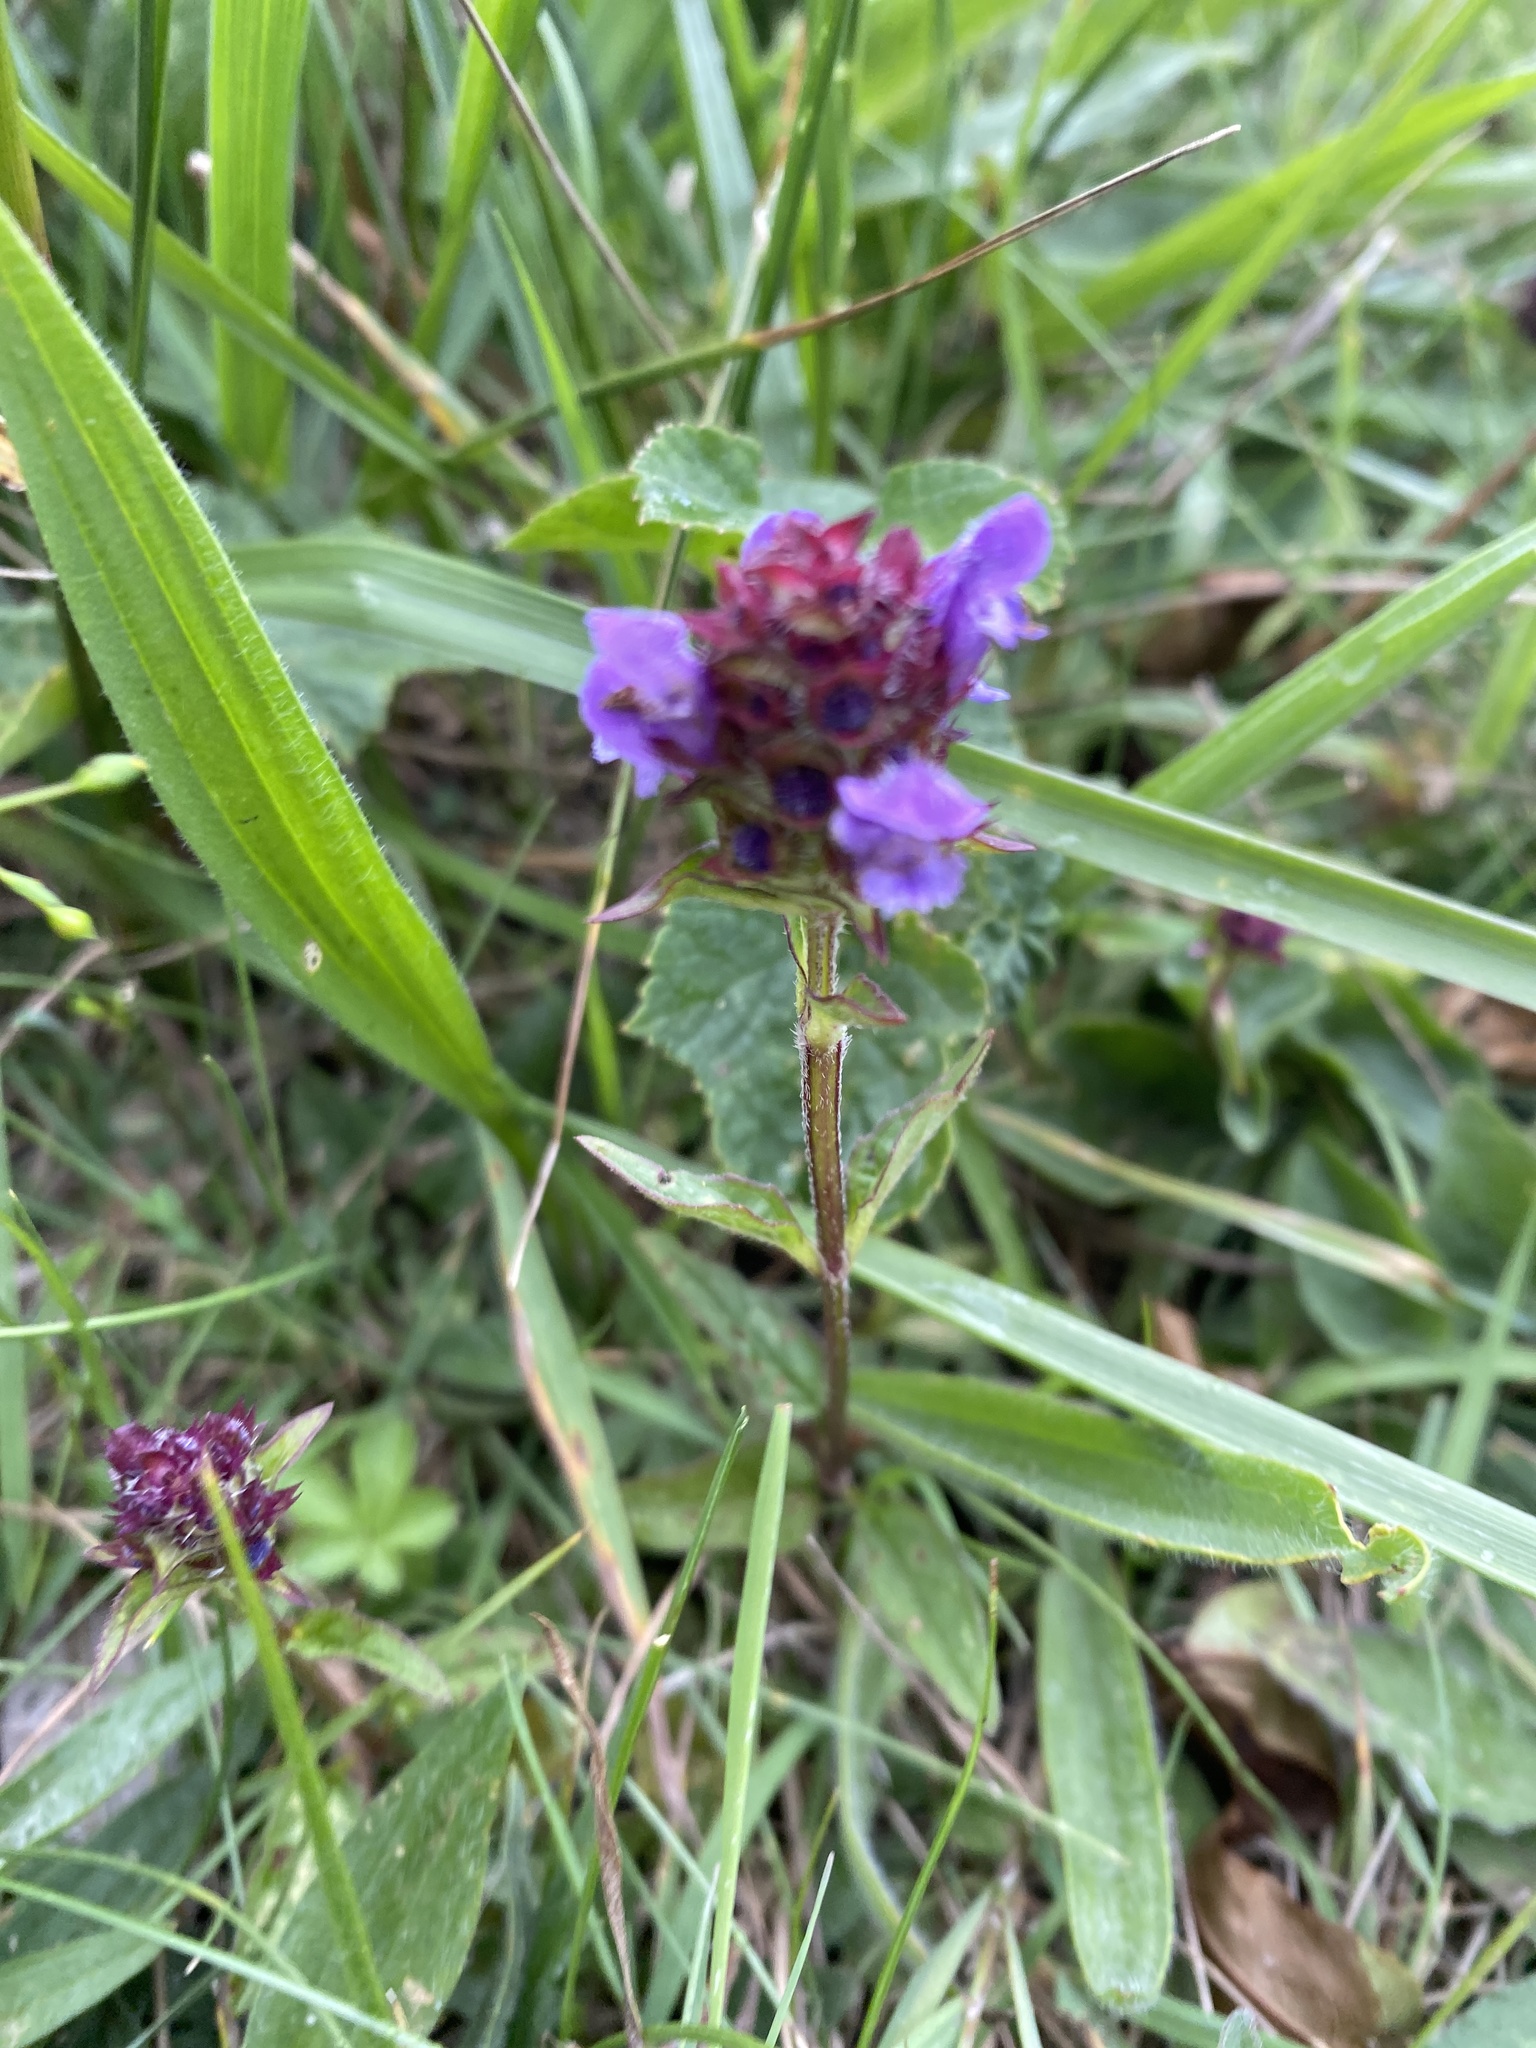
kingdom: Plantae
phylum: Tracheophyta
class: Magnoliopsida
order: Lamiales
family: Lamiaceae
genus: Prunella
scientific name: Prunella vulgaris
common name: Heal-all
